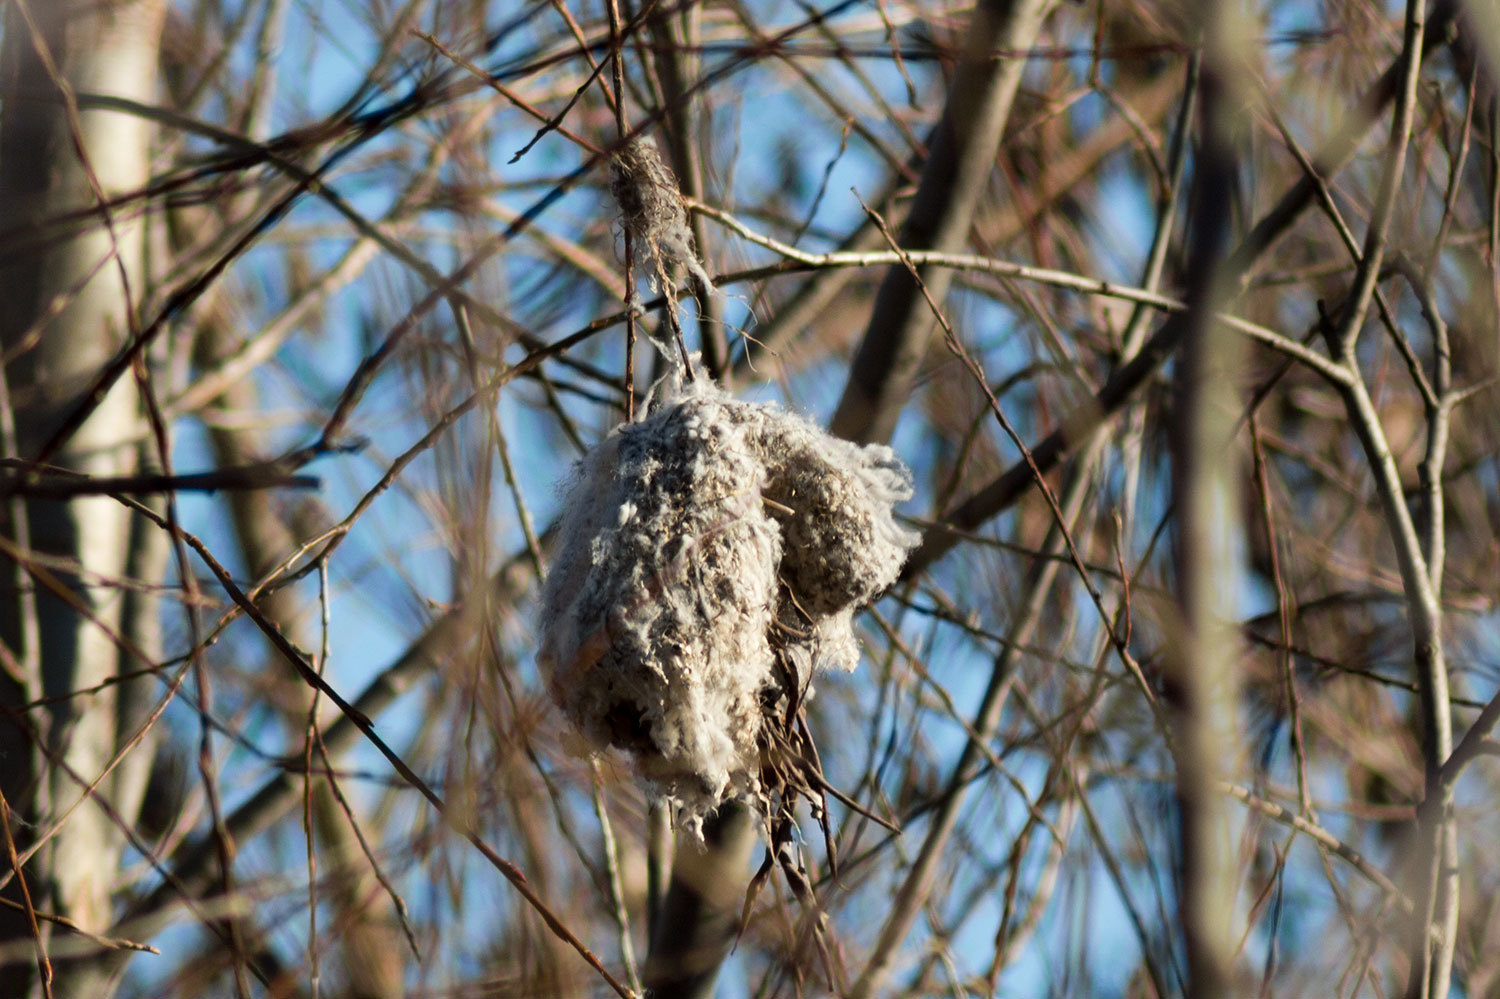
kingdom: Animalia
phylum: Chordata
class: Aves
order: Passeriformes
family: Remizidae
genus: Remiz
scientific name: Remiz pendulinus
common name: Eurasian penduline tit
